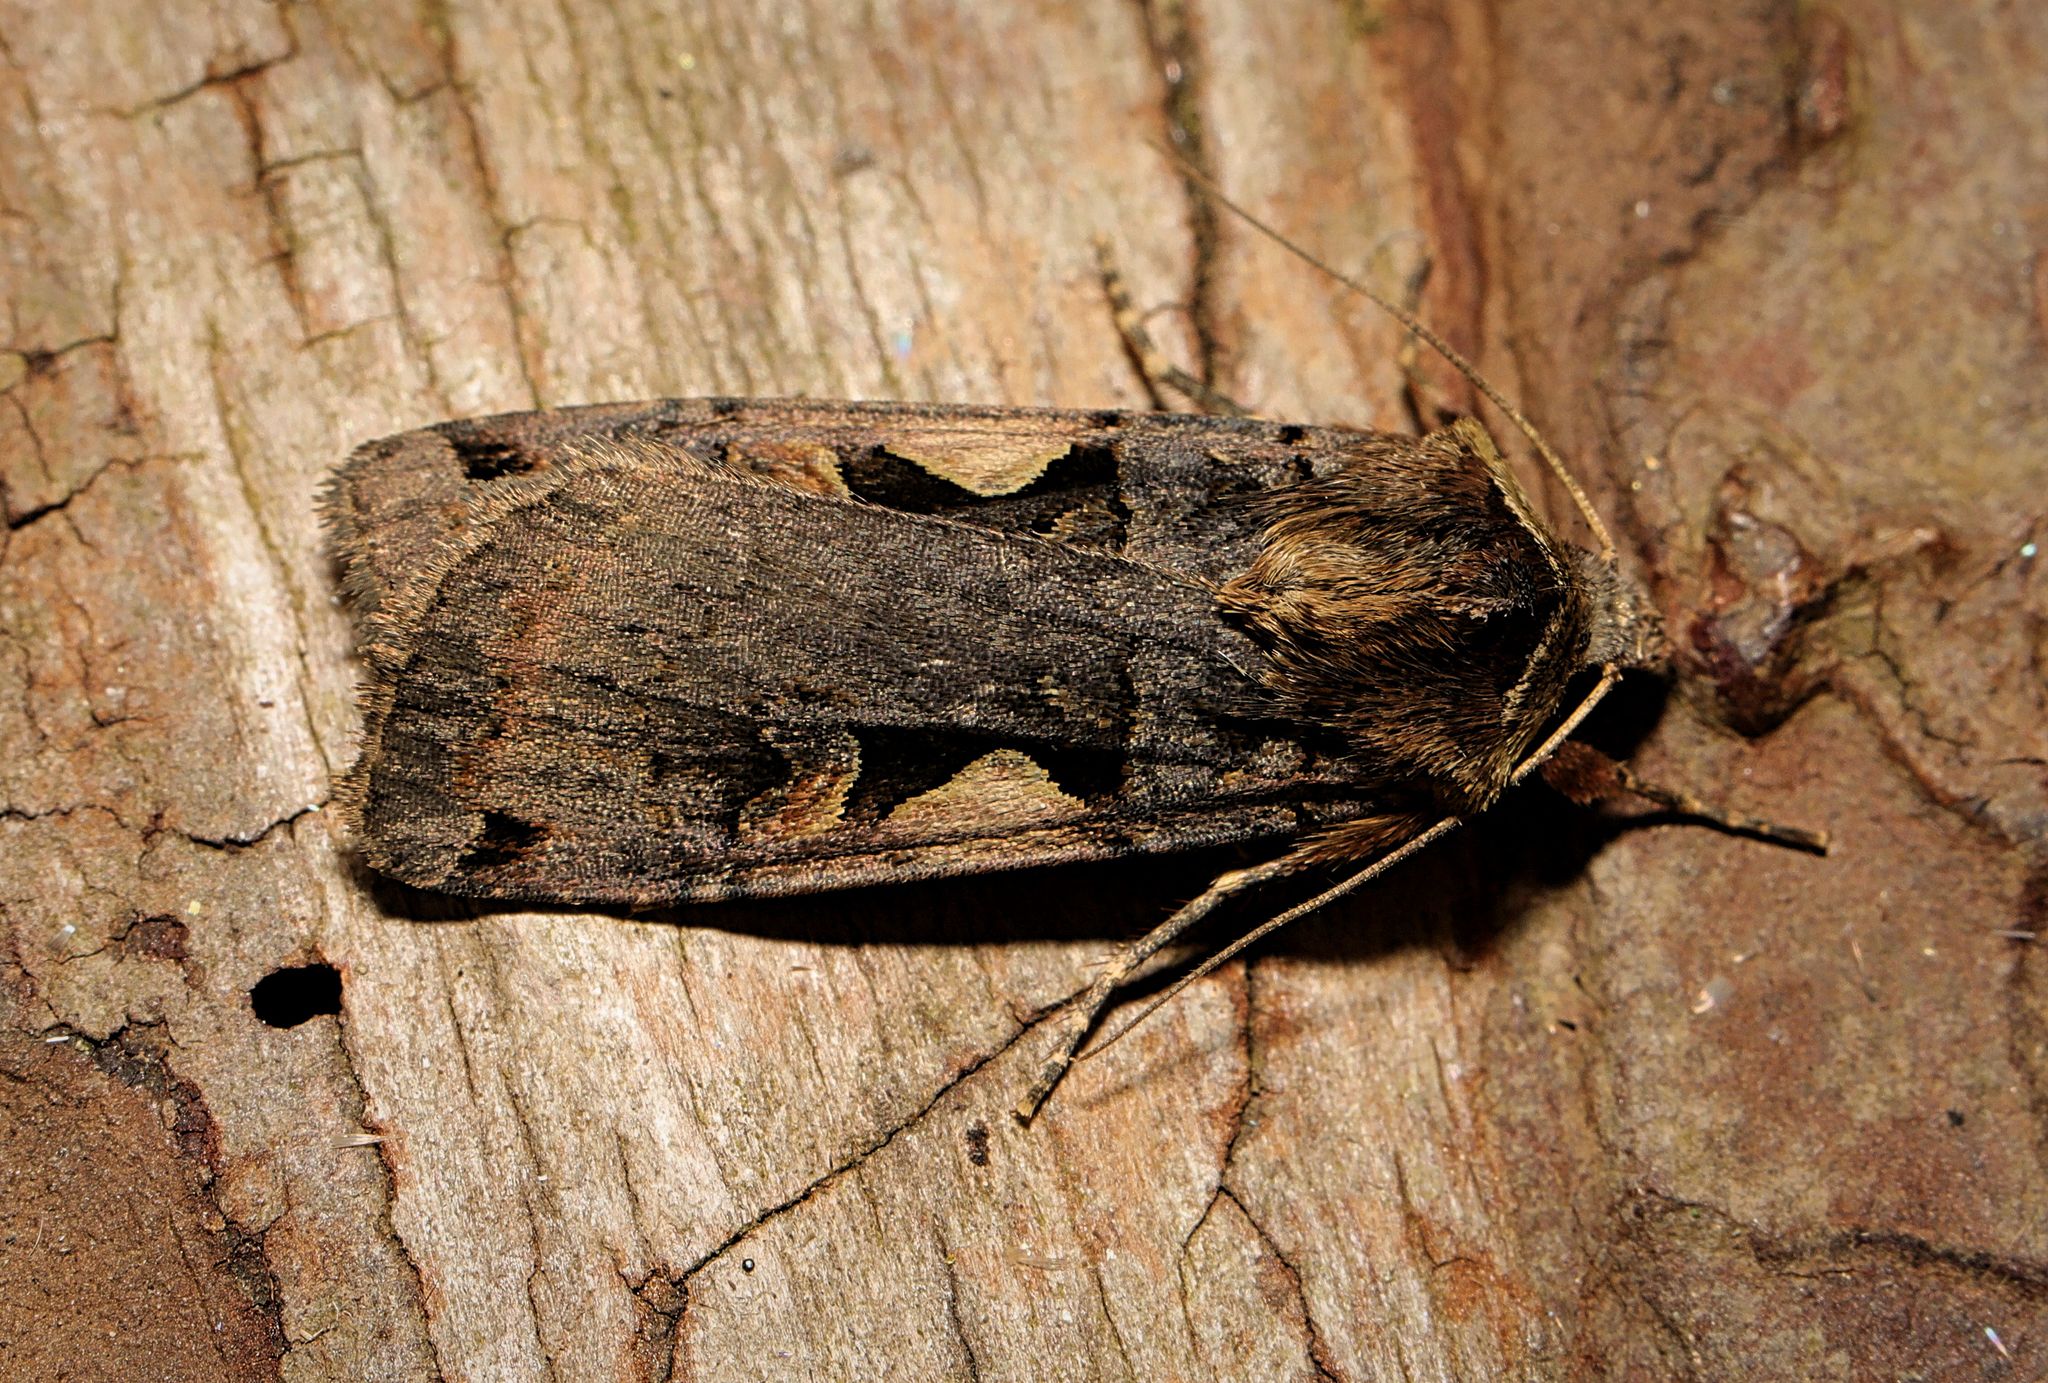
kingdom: Animalia
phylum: Arthropoda
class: Insecta
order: Lepidoptera
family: Noctuidae
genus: Xestia
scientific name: Xestia c-nigrum
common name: Setaceous hebrew character
